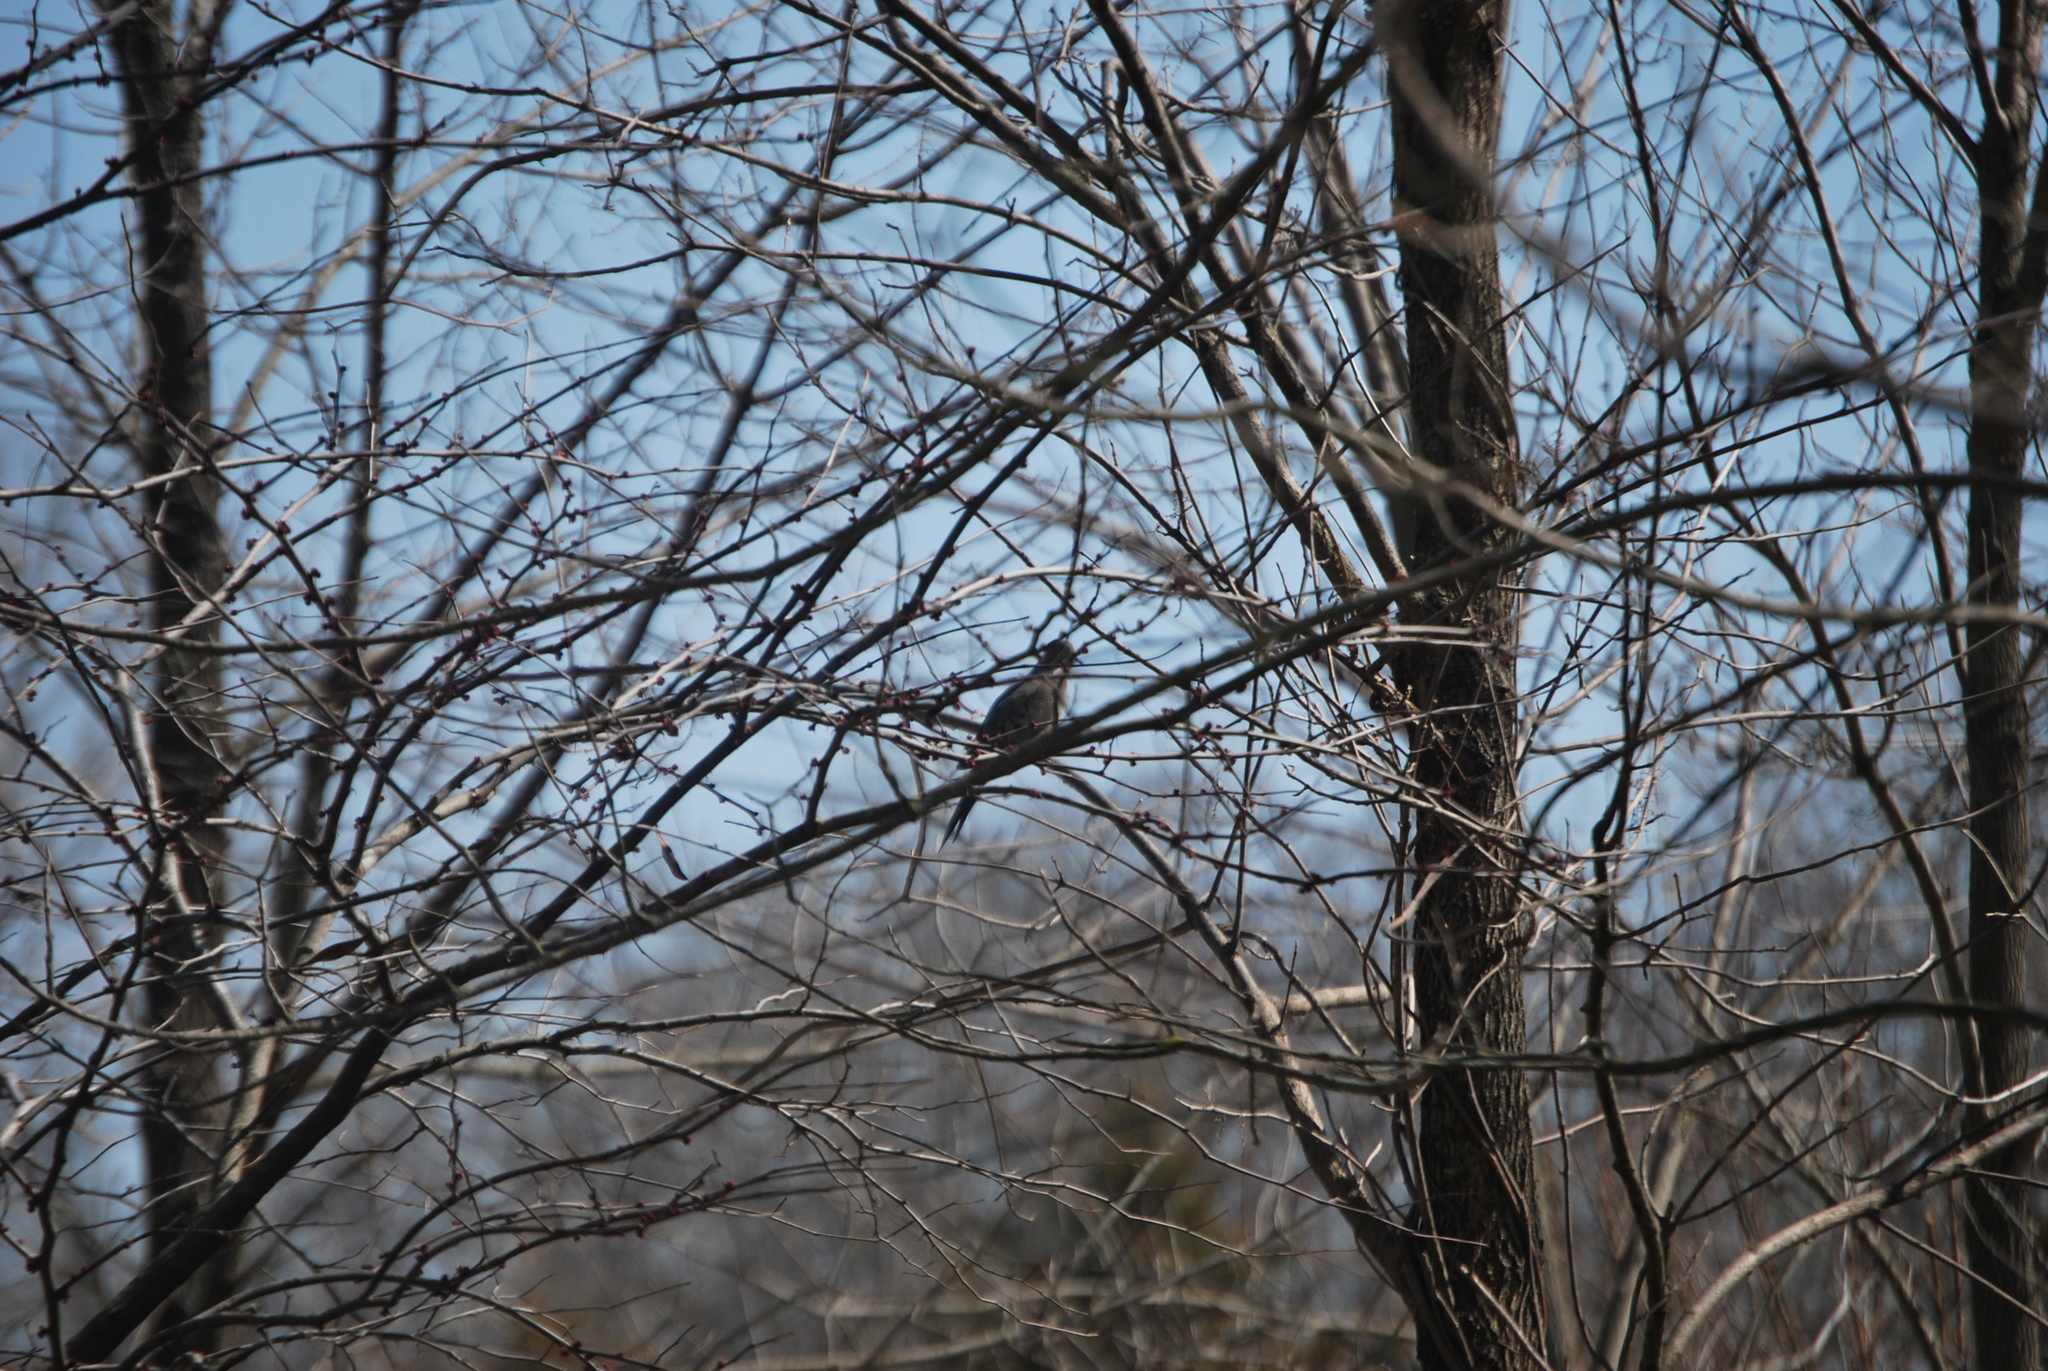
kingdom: Animalia
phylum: Chordata
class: Aves
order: Columbiformes
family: Columbidae
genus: Zenaida
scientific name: Zenaida macroura
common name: Mourning dove
